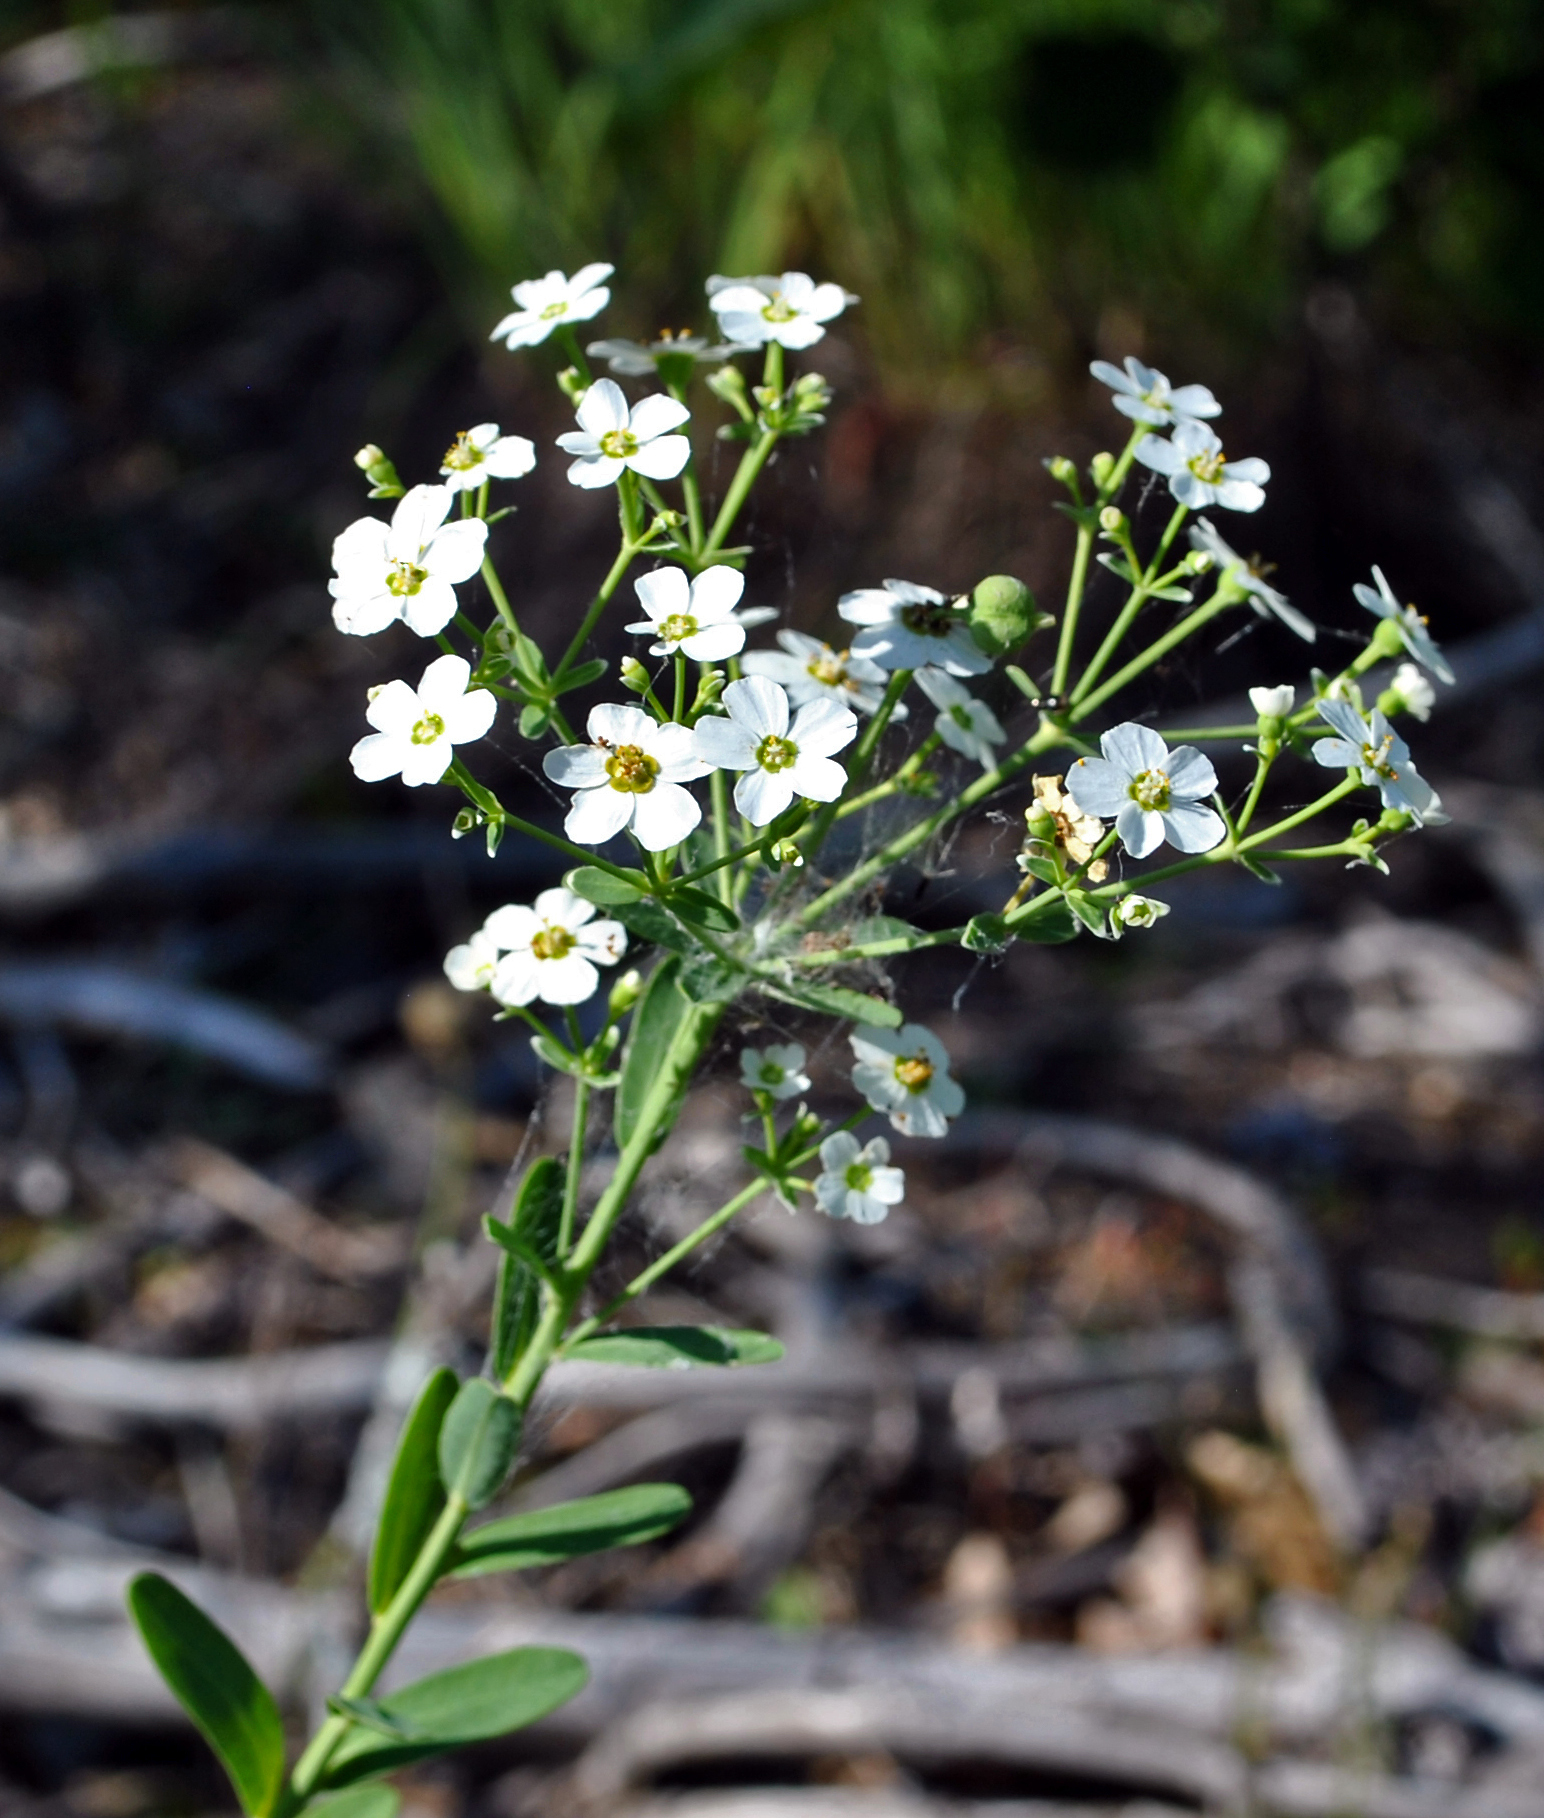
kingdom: Plantae
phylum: Tracheophyta
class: Magnoliopsida
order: Malpighiales
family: Euphorbiaceae
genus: Euphorbia
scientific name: Euphorbia corollata
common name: Flowering spurge
